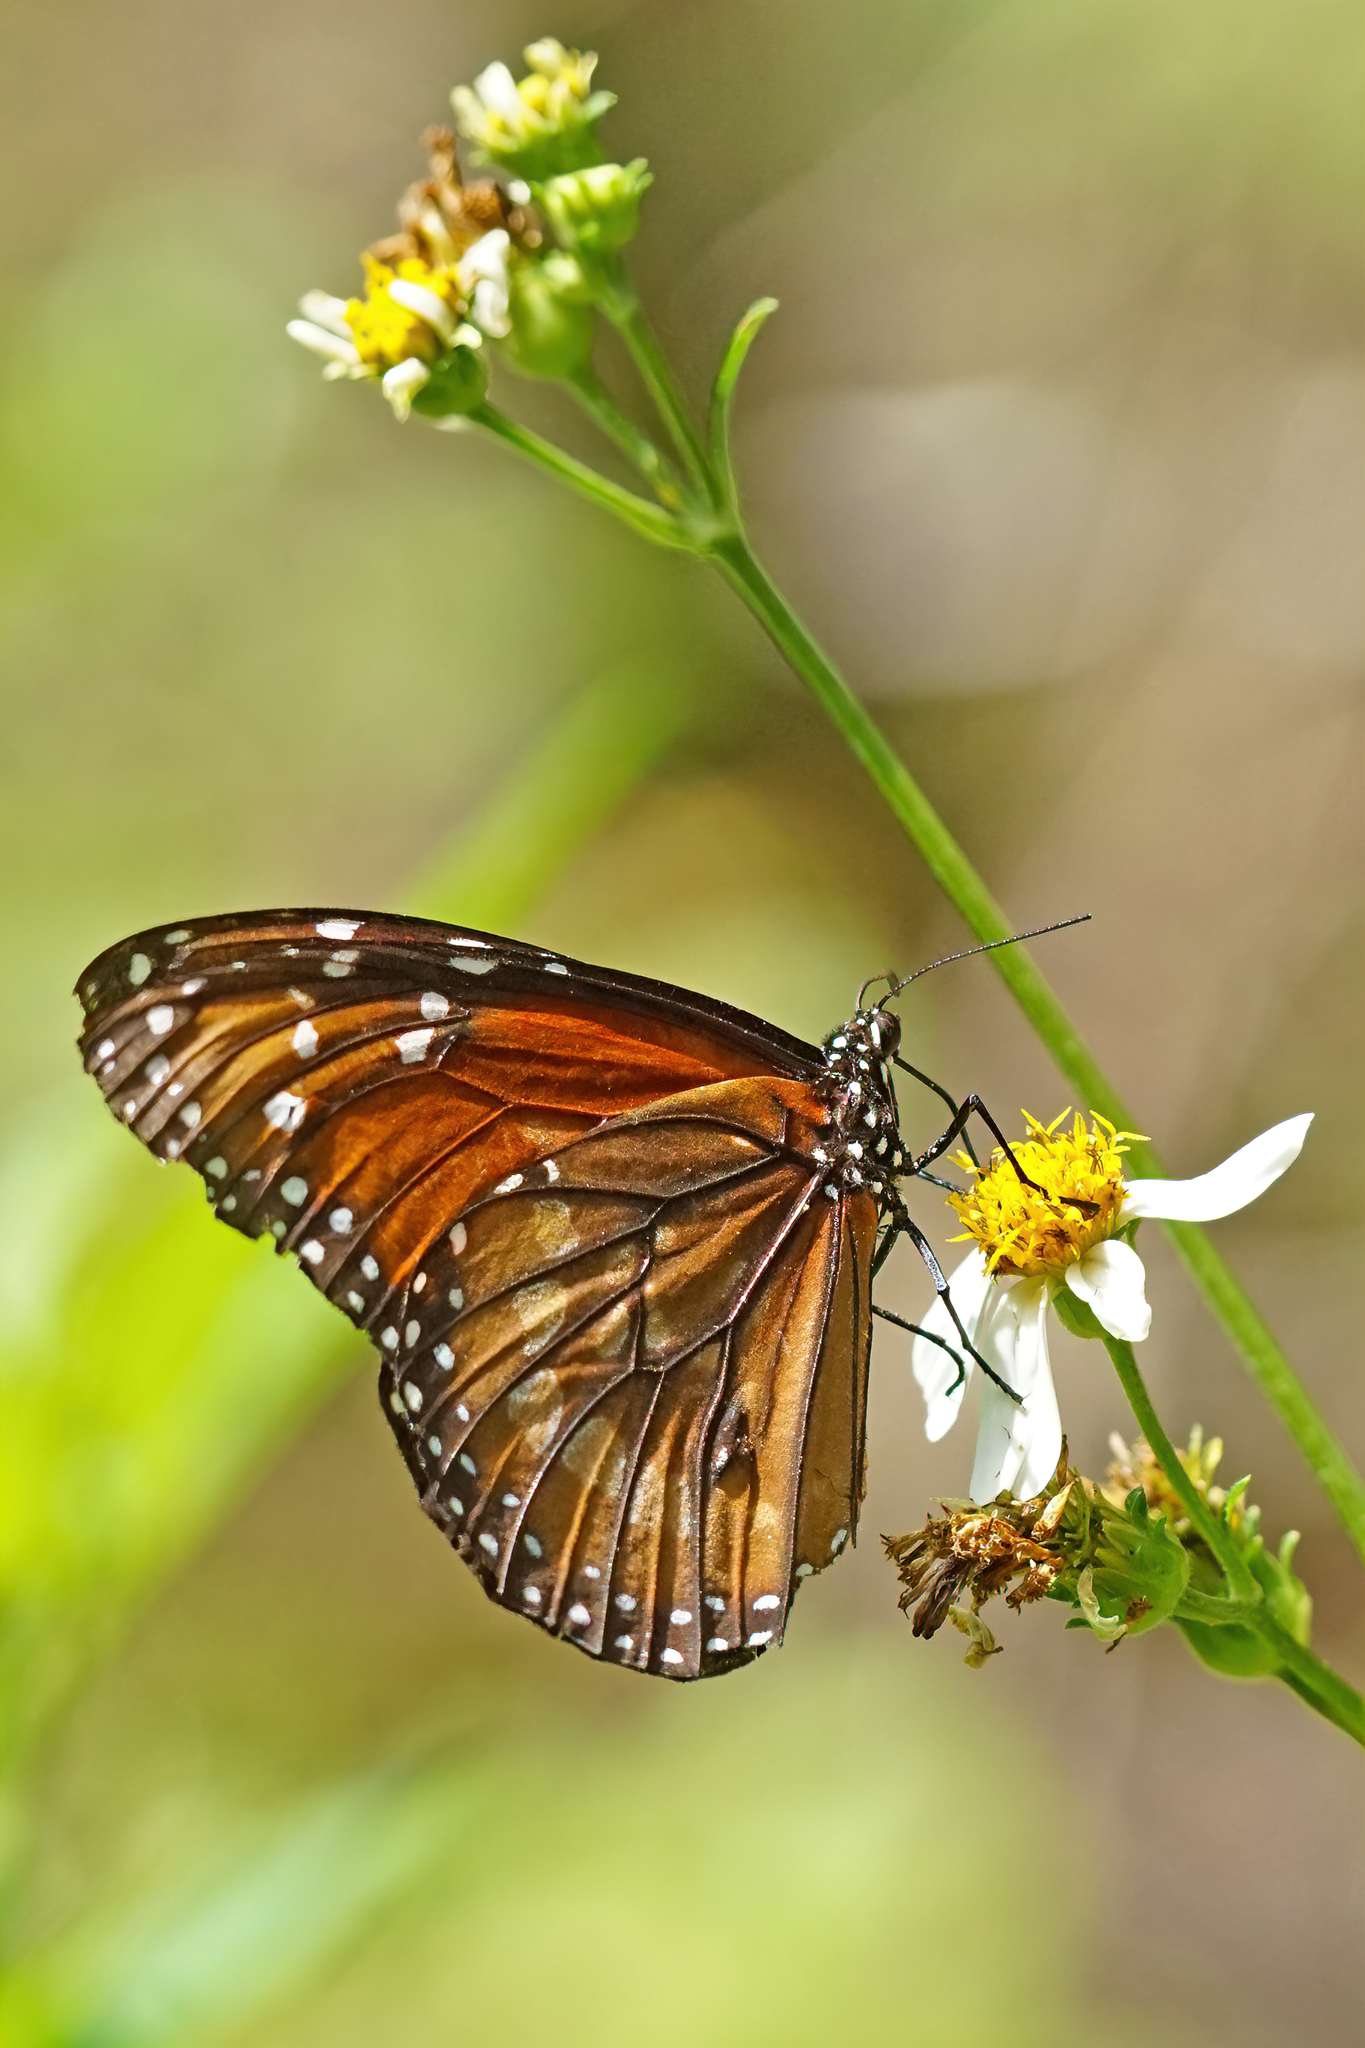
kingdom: Animalia
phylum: Arthropoda
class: Insecta
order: Lepidoptera
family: Nymphalidae
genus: Danaus
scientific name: Danaus eresimus
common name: Soldier
